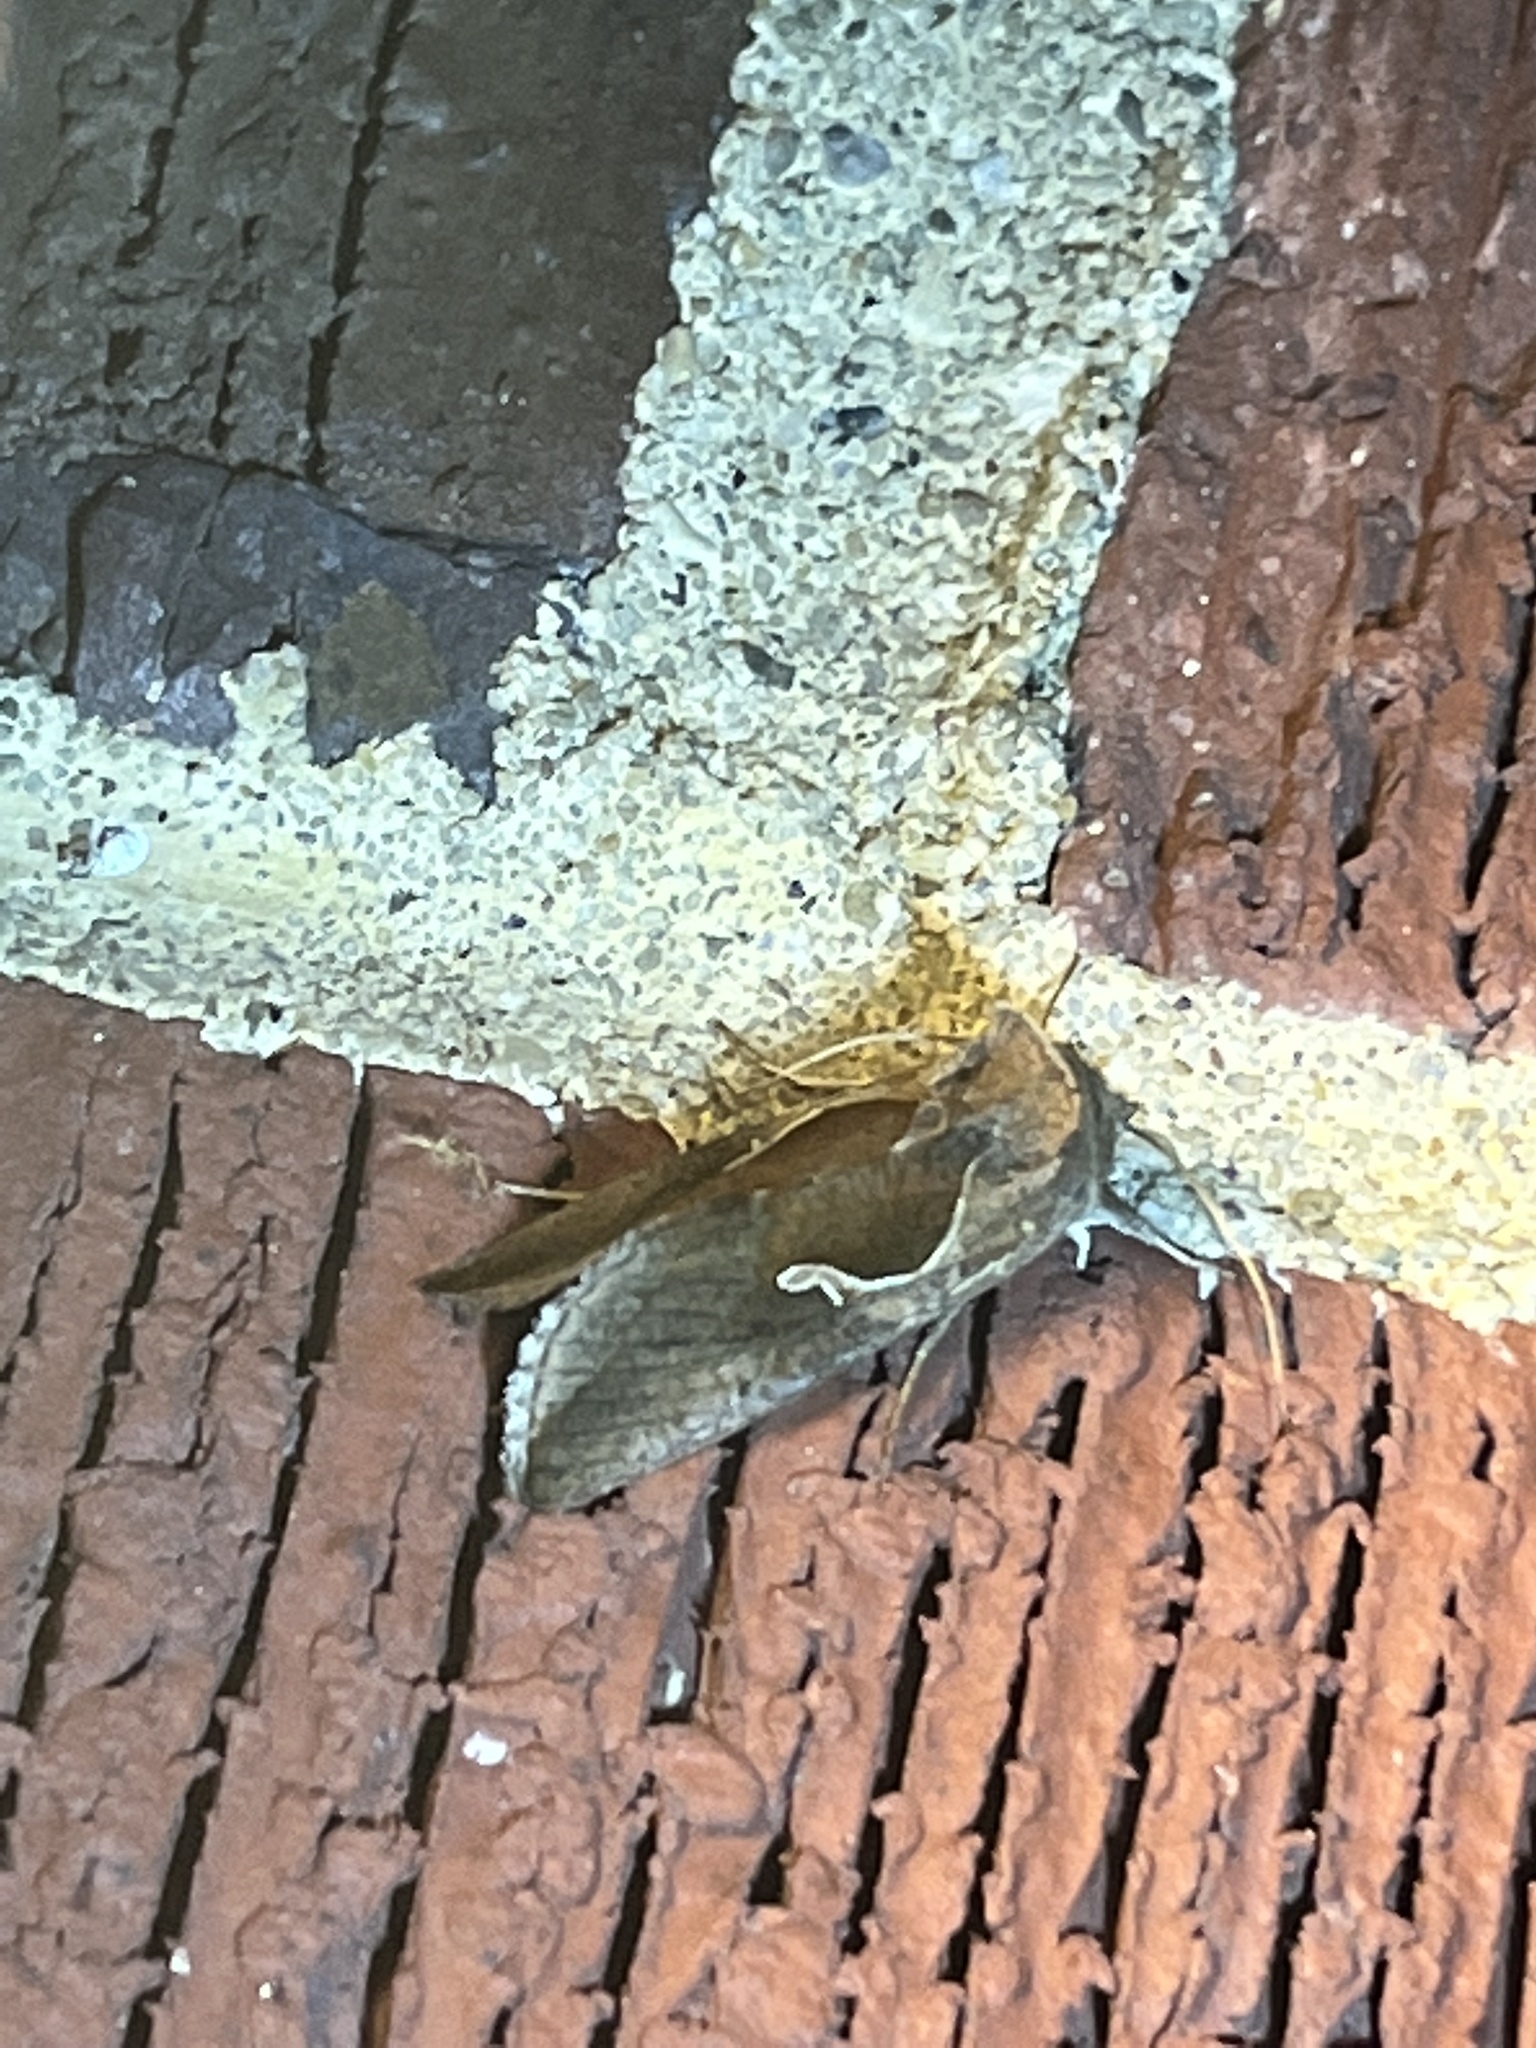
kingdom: Animalia
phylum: Arthropoda
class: Insecta
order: Lepidoptera
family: Noctuidae
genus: Anagrapha
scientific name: Anagrapha falcifera
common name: Celery looper
